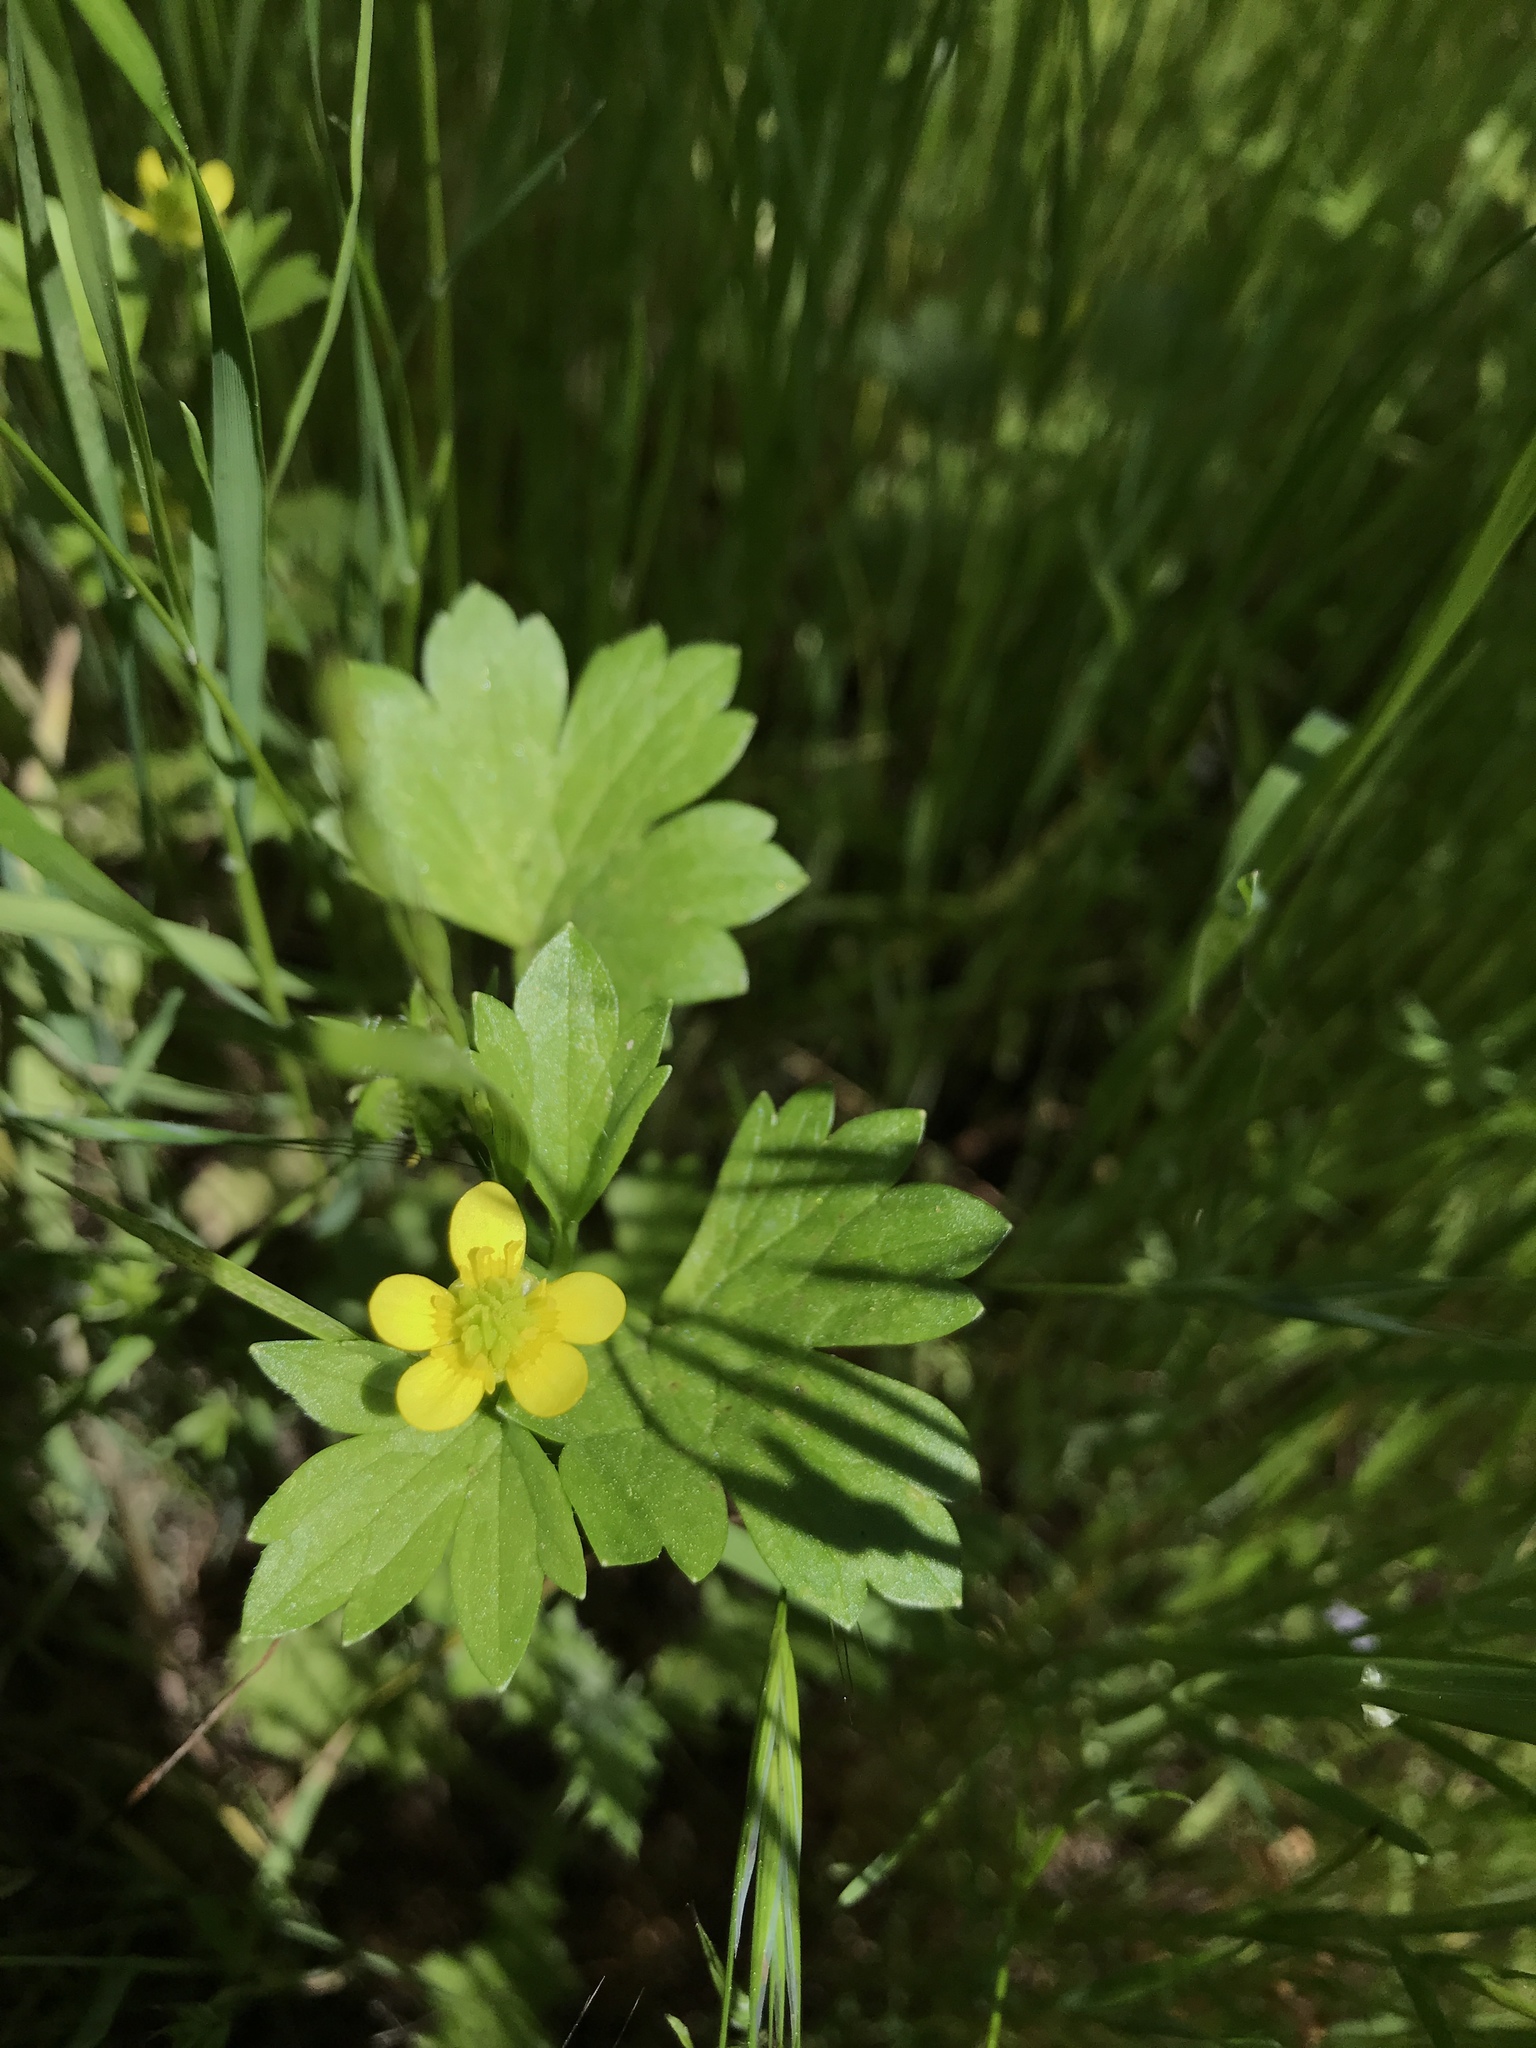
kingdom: Plantae
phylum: Tracheophyta
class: Magnoliopsida
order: Ranunculales
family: Ranunculaceae
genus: Ranunculus
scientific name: Ranunculus muricatus
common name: Rough-fruited buttercup
